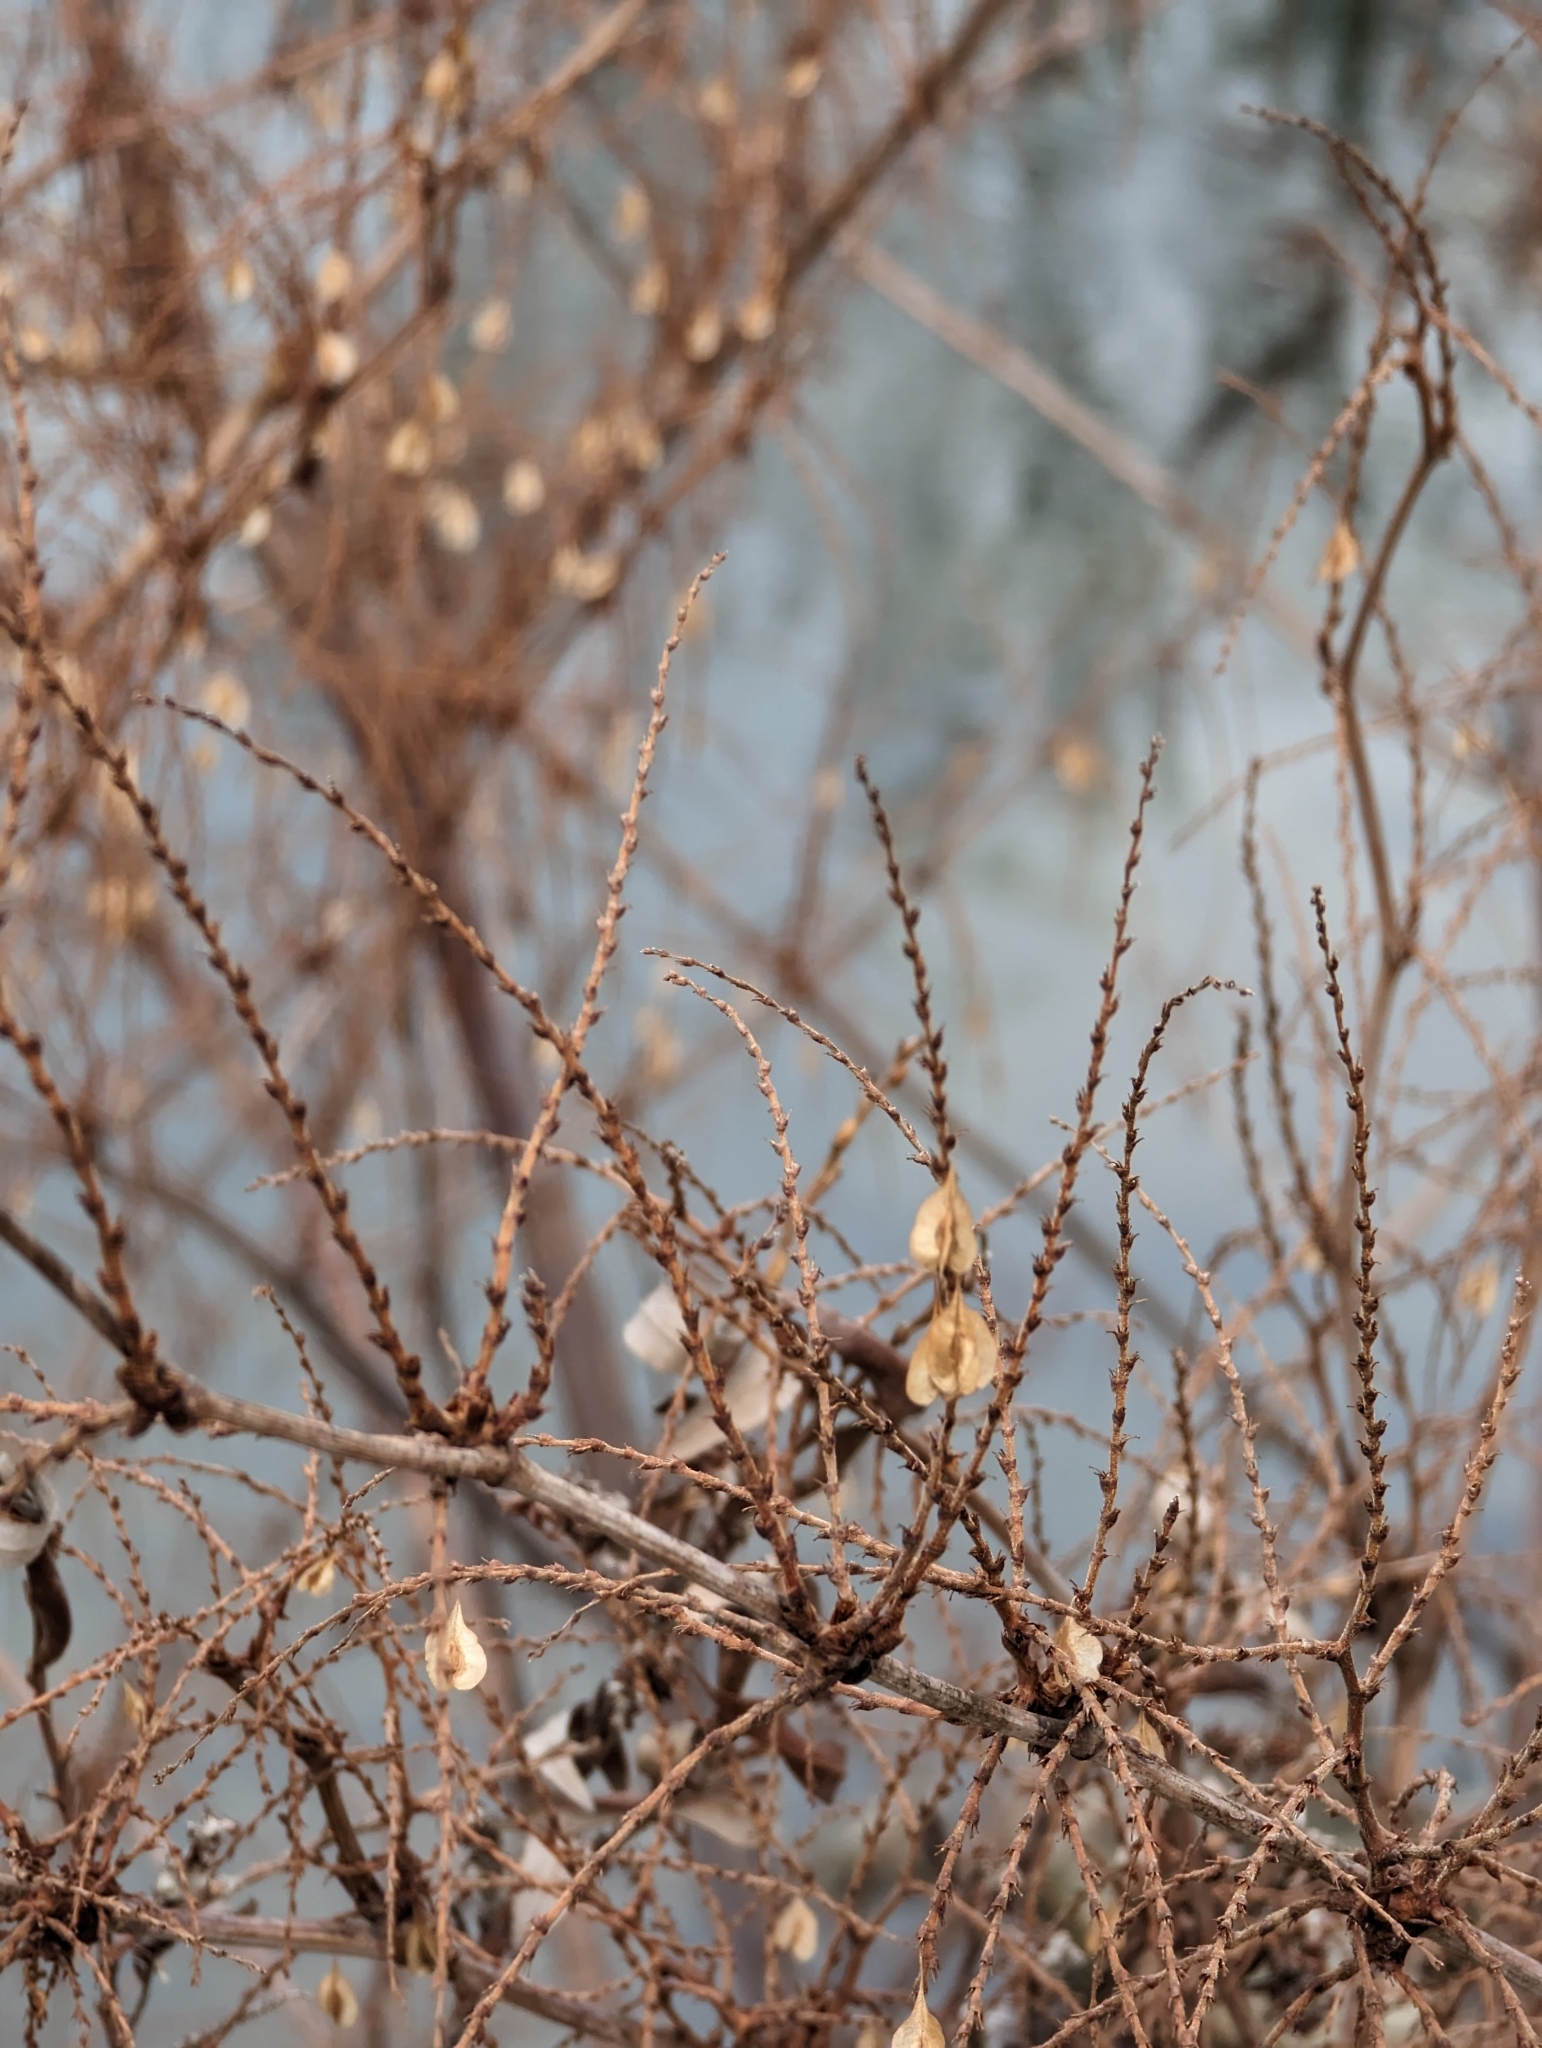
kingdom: Plantae
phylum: Tracheophyta
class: Magnoliopsida
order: Caryophyllales
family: Polygonaceae
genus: Reynoutria
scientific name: Reynoutria
